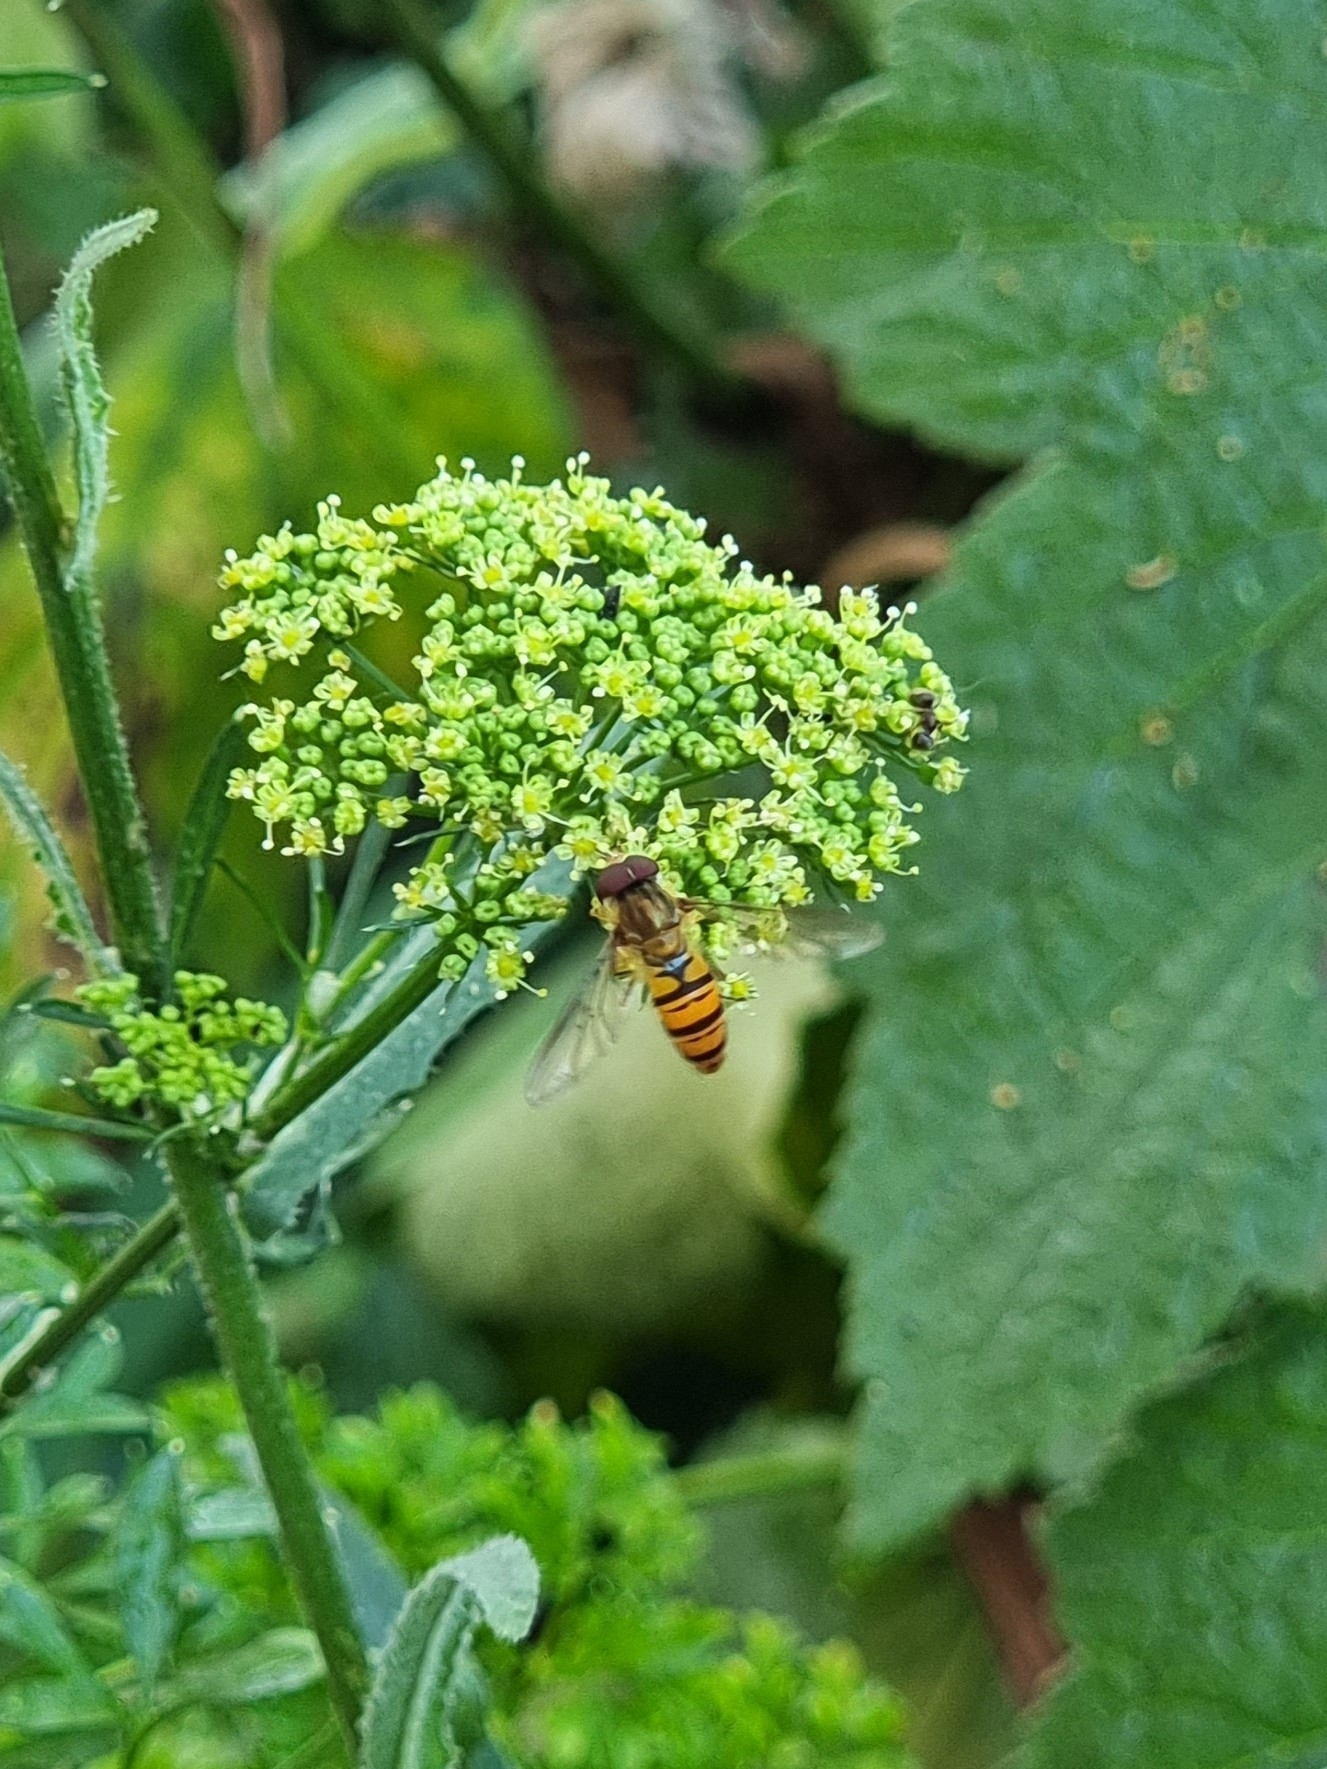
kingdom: Animalia
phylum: Arthropoda
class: Insecta
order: Diptera
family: Syrphidae
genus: Episyrphus
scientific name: Episyrphus balteatus
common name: Marmalade hoverfly
